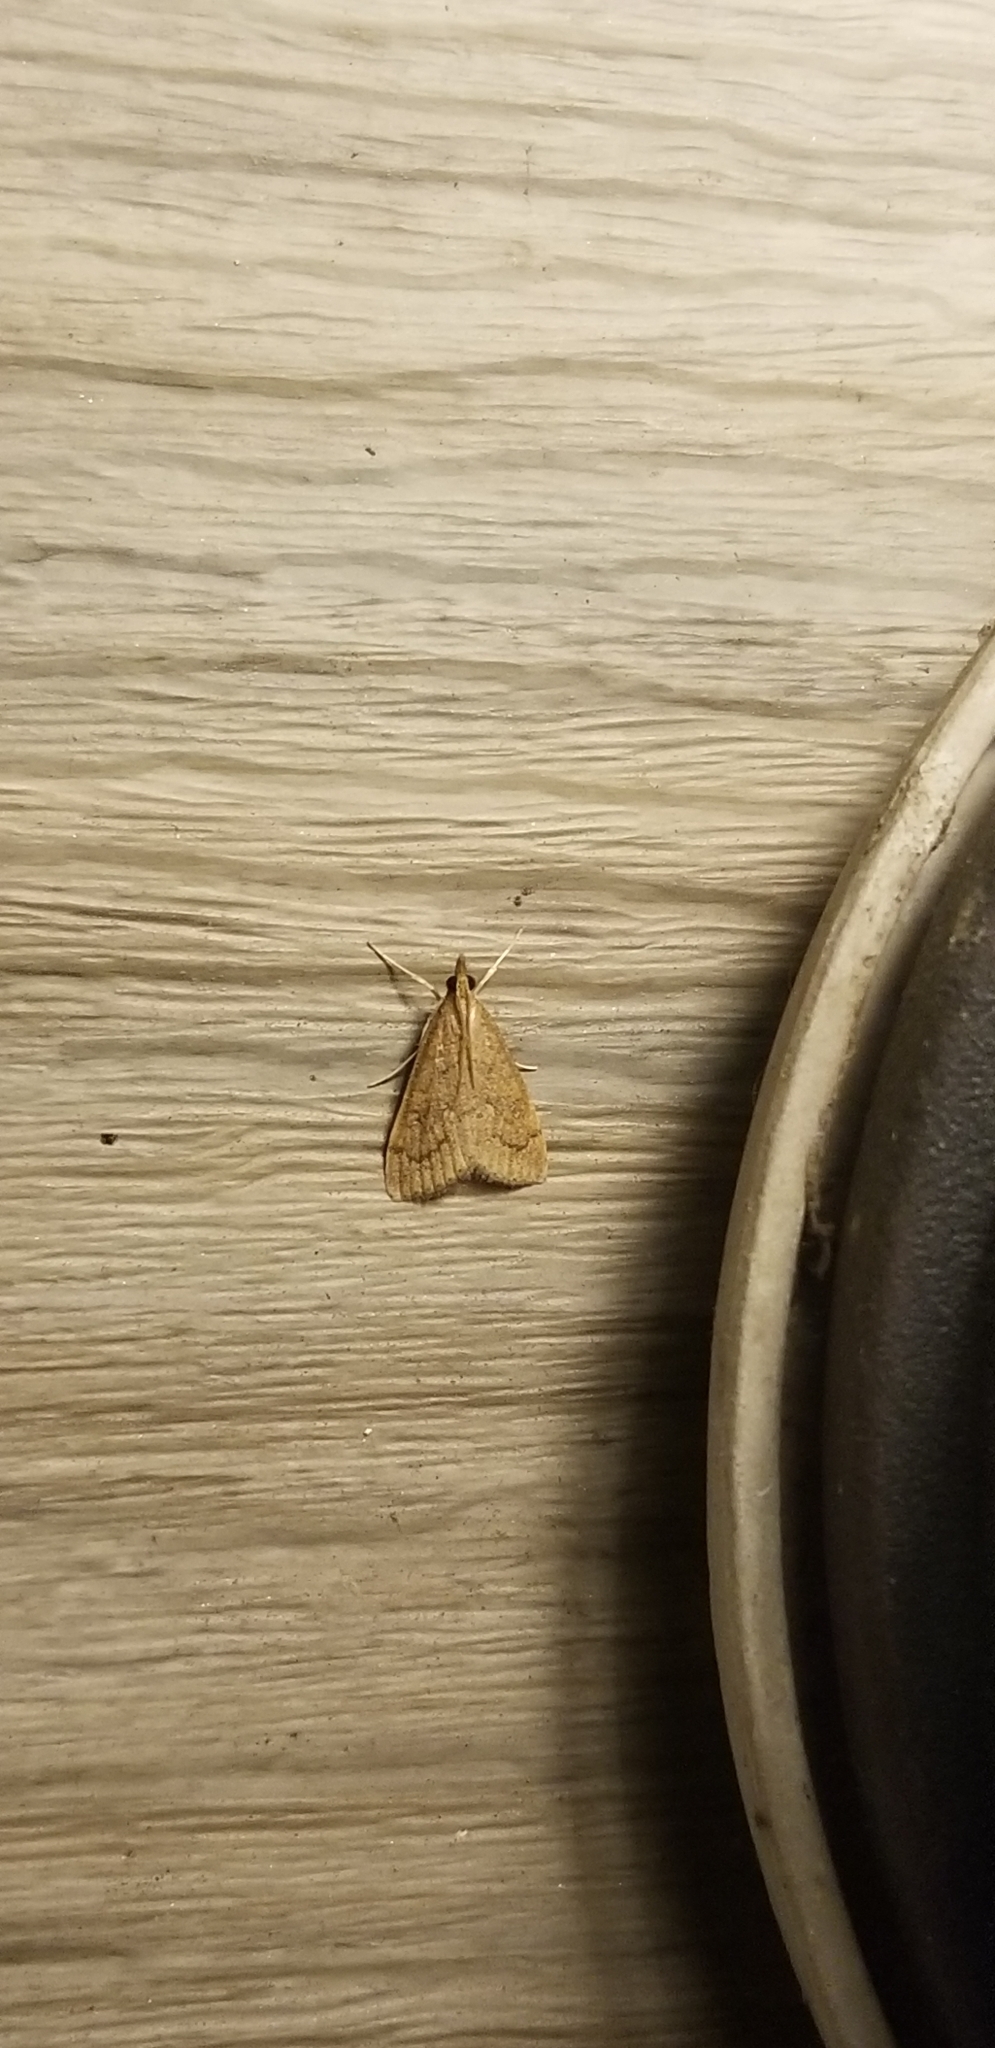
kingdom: Animalia
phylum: Arthropoda
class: Insecta
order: Lepidoptera
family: Crambidae
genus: Udea
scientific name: Udea rubigalis
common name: Celery leaftier moth
